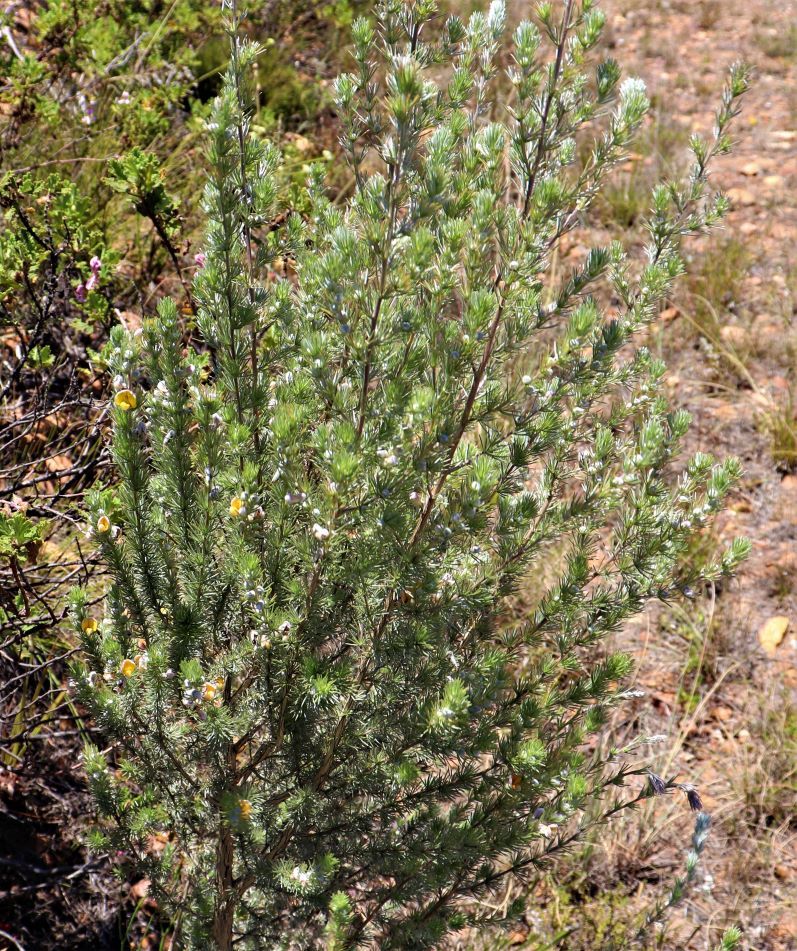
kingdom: Plantae
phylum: Tracheophyta
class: Magnoliopsida
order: Fabales
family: Fabaceae
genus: Aspalathus
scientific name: Aspalathus kougaensis
